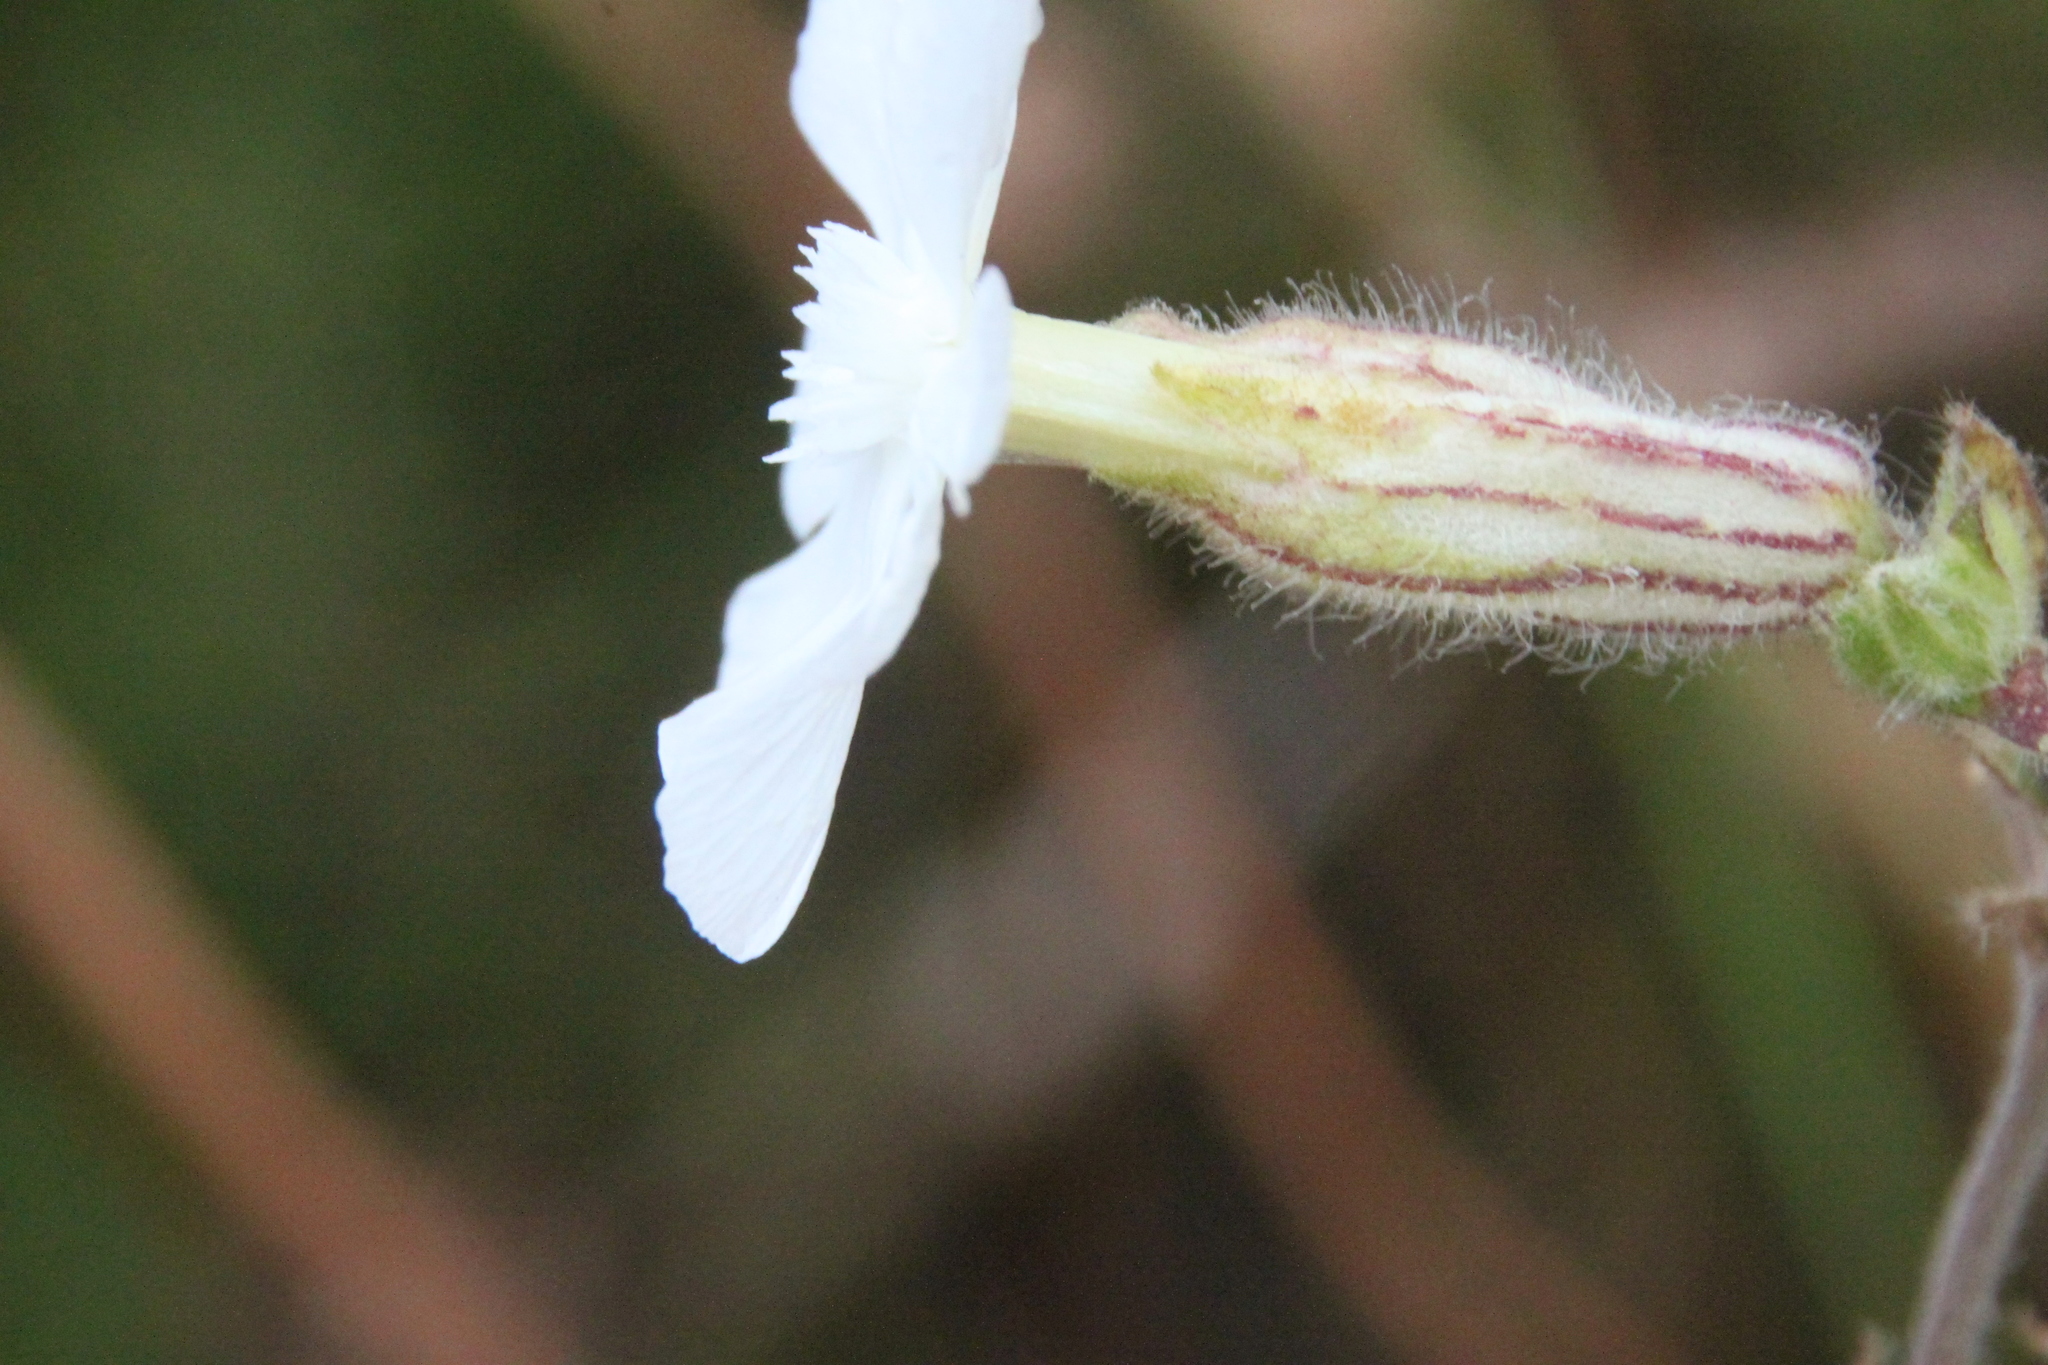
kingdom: Plantae
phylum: Tracheophyta
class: Magnoliopsida
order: Caryophyllales
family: Caryophyllaceae
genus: Silene
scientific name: Silene latifolia
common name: White campion
